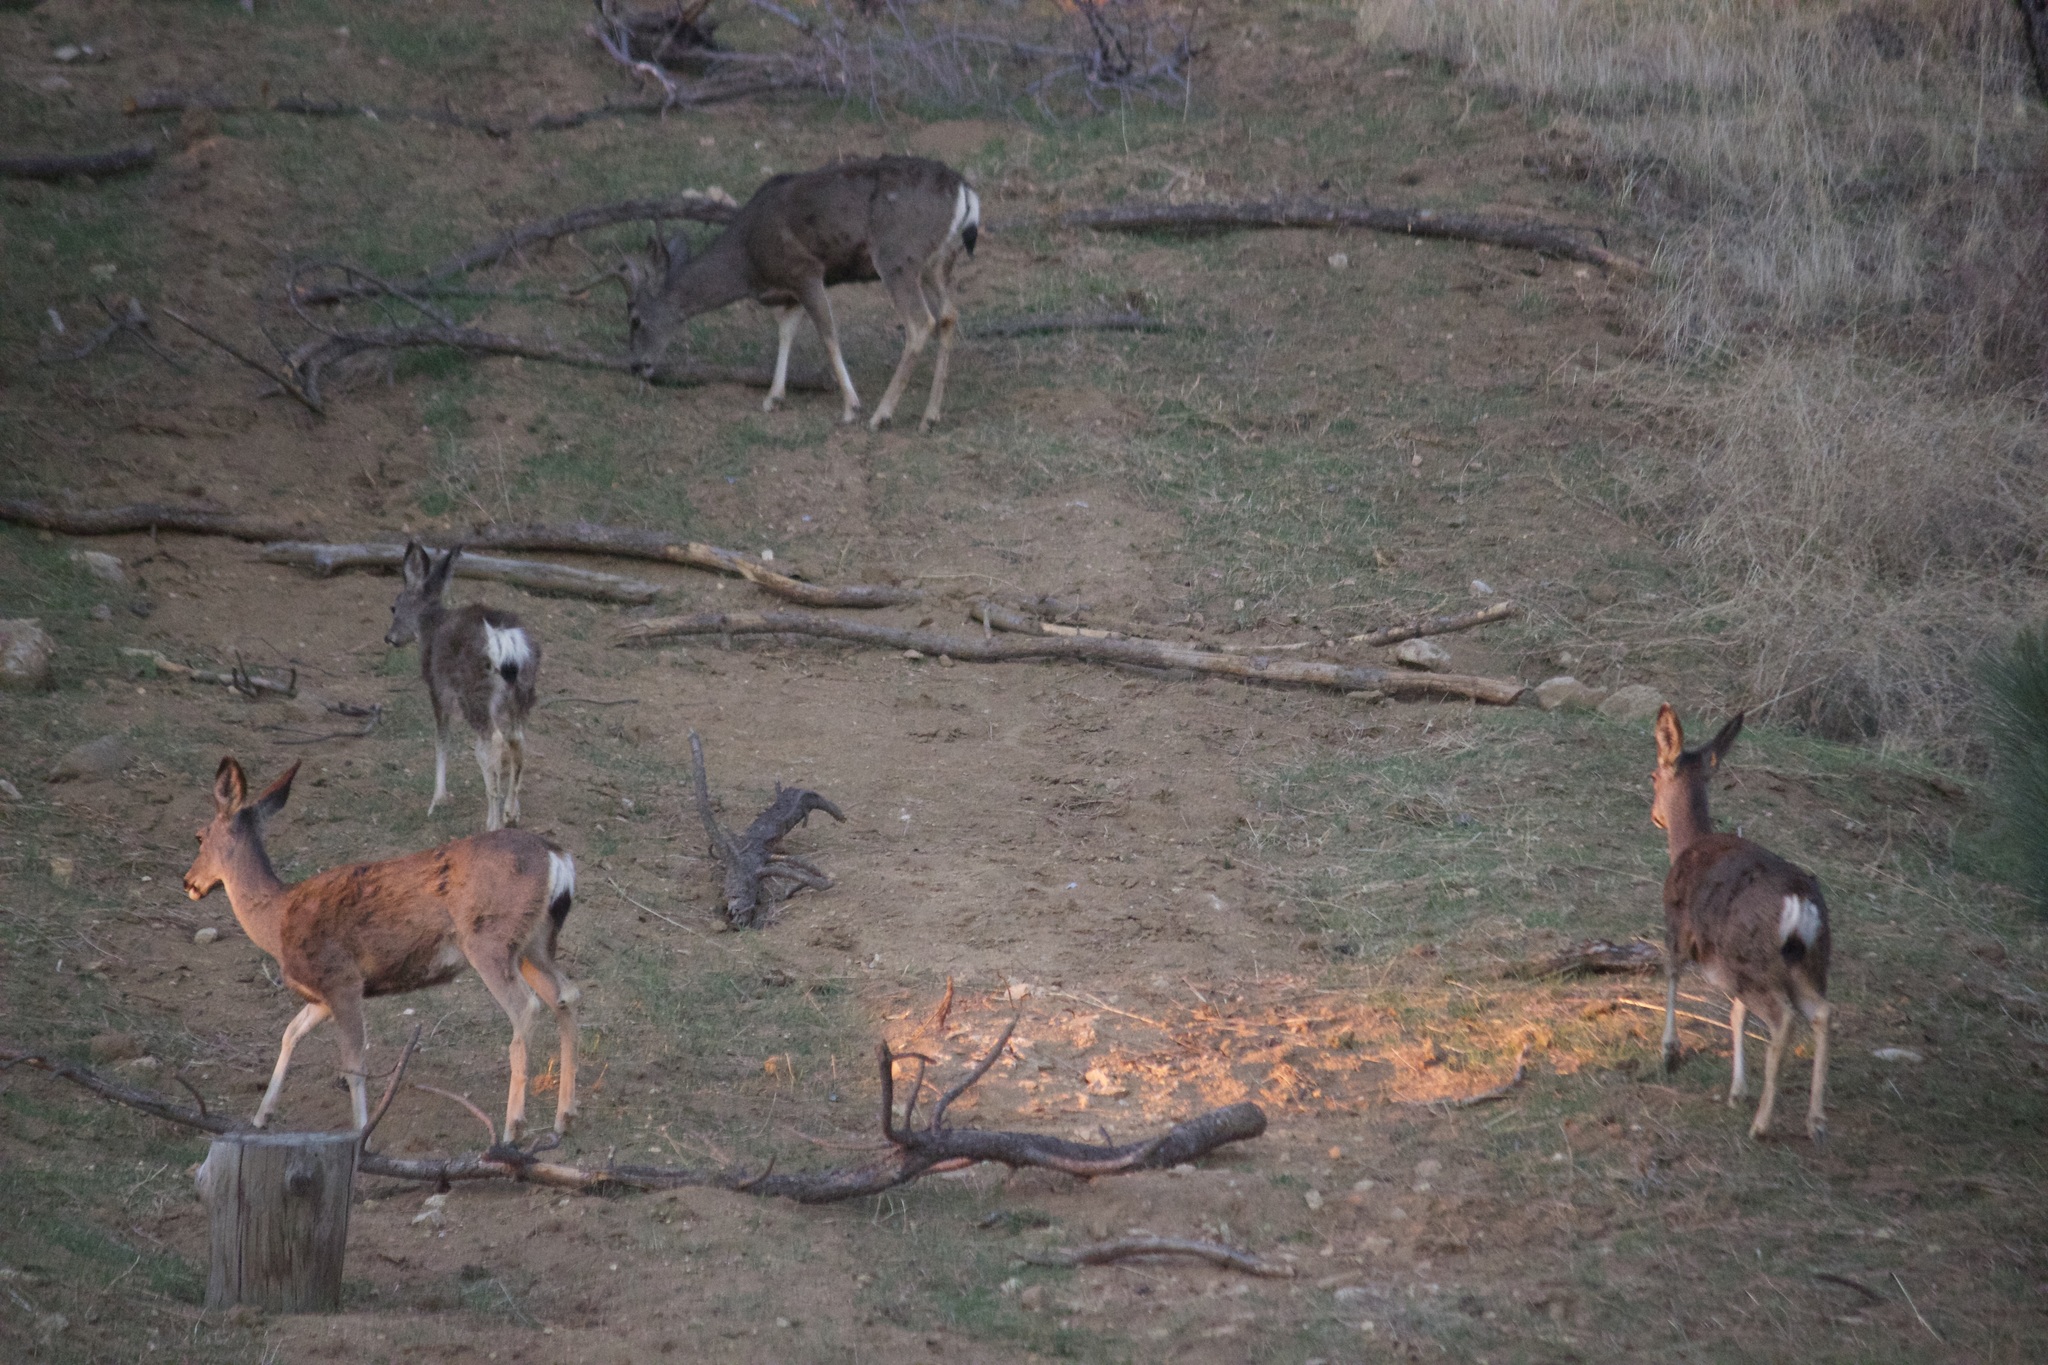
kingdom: Animalia
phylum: Chordata
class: Mammalia
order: Artiodactyla
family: Cervidae
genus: Odocoileus
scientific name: Odocoileus hemionus
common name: Mule deer
